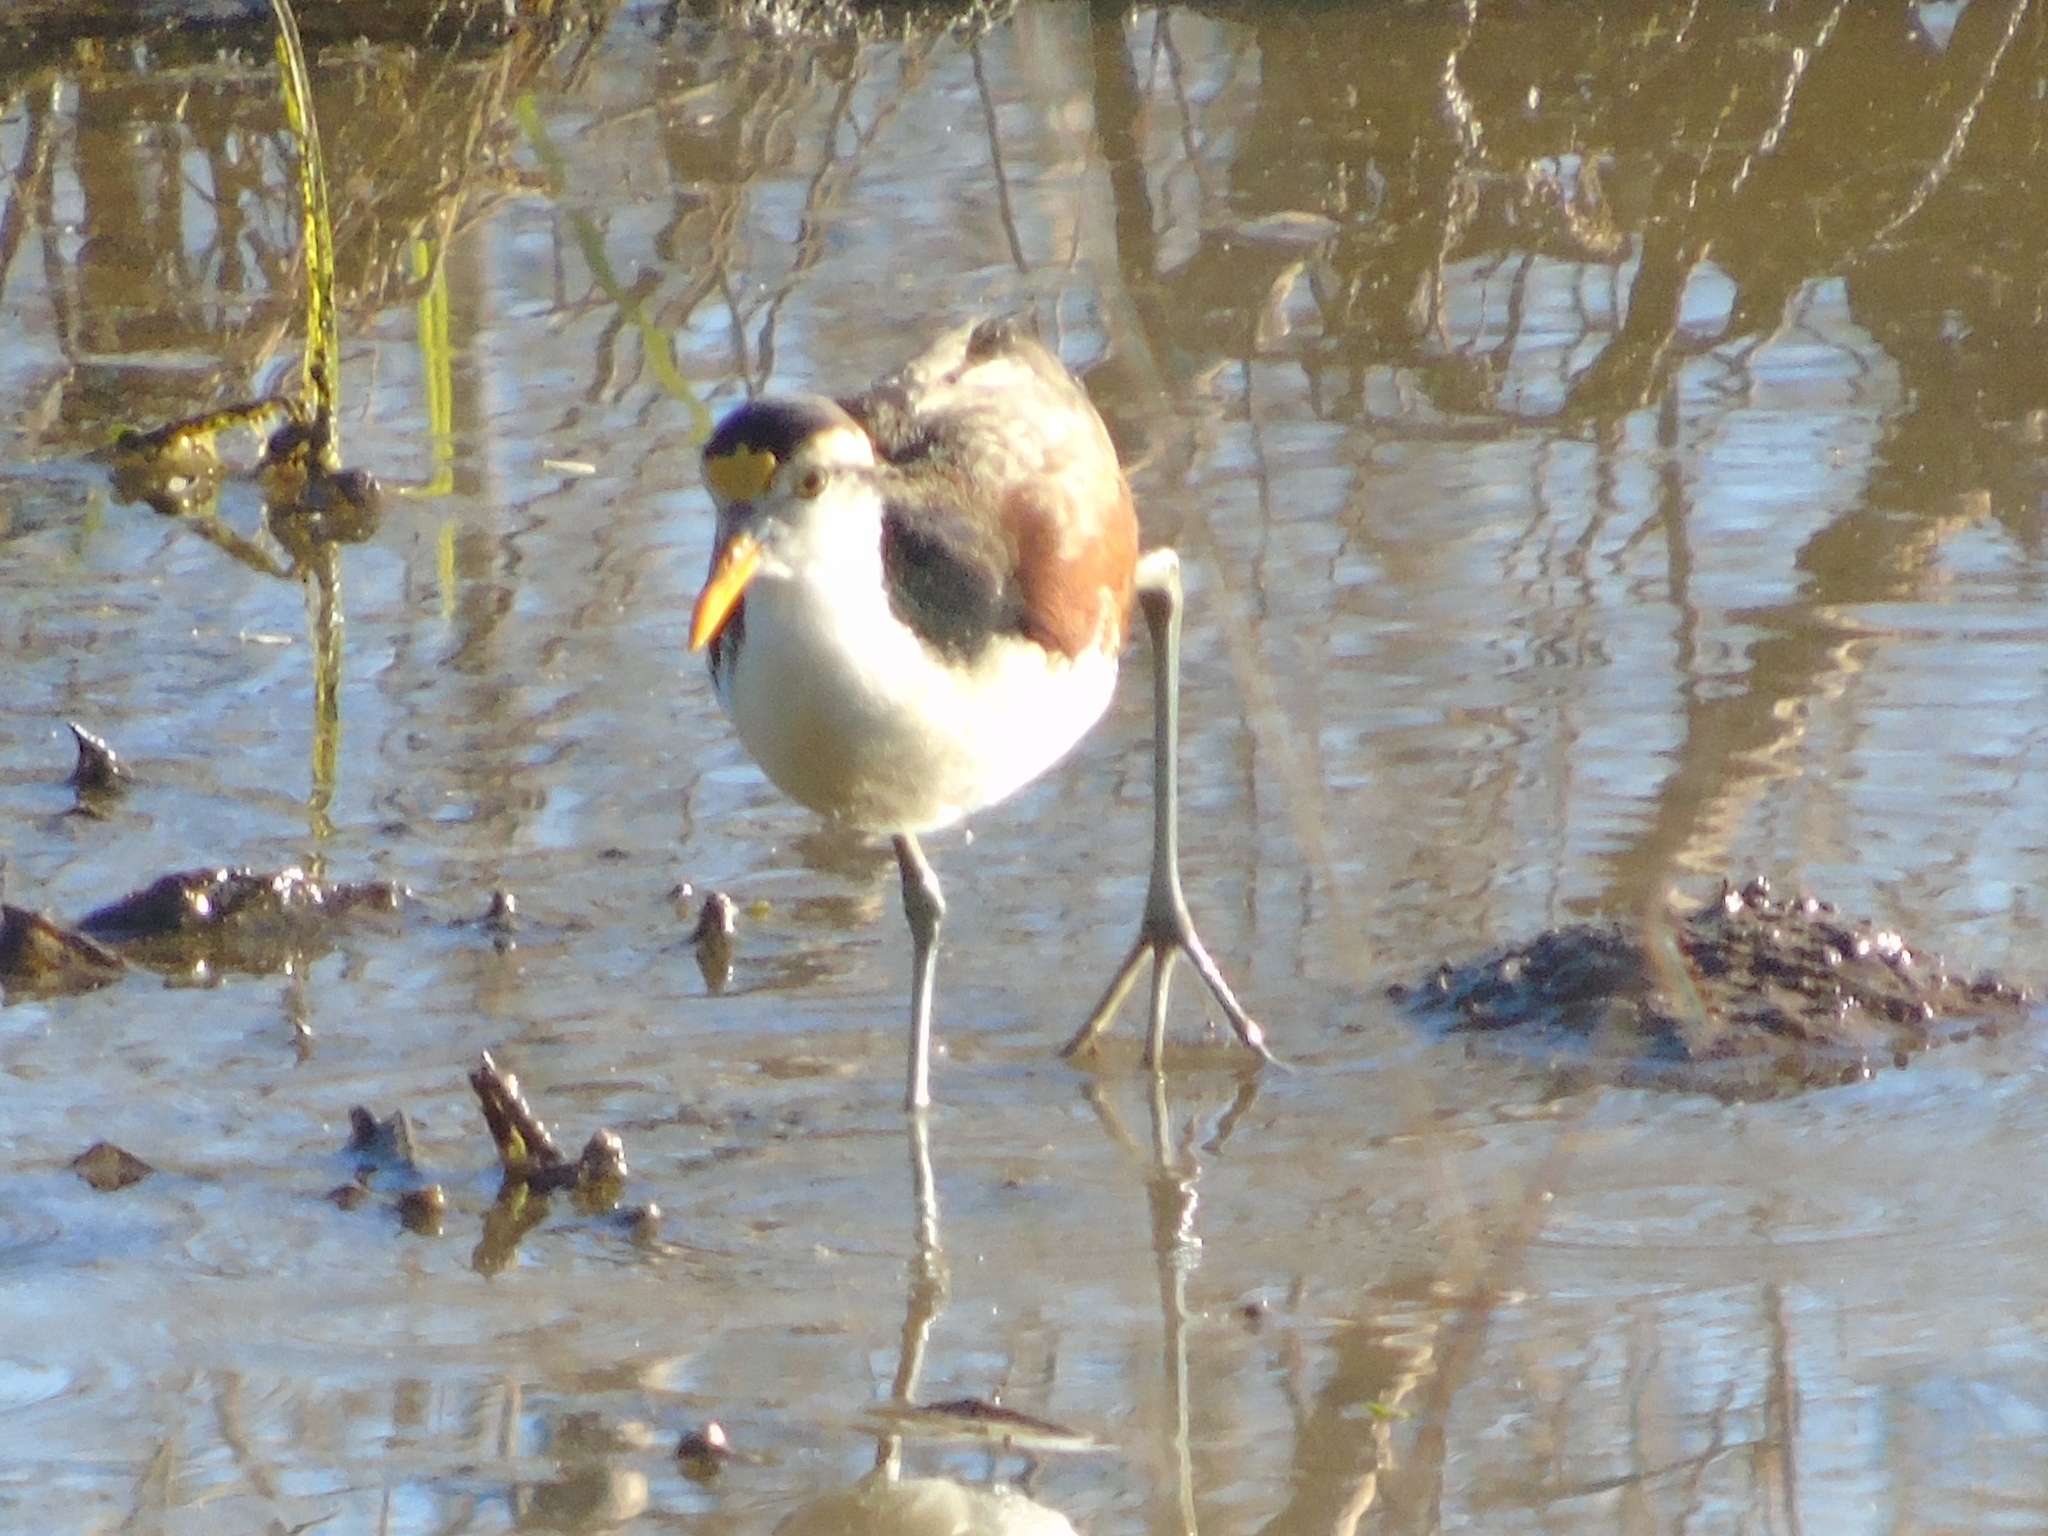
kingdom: Animalia
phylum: Chordata
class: Aves
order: Charadriiformes
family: Jacanidae
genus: Jacana
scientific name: Jacana spinosa
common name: Northern jacana
